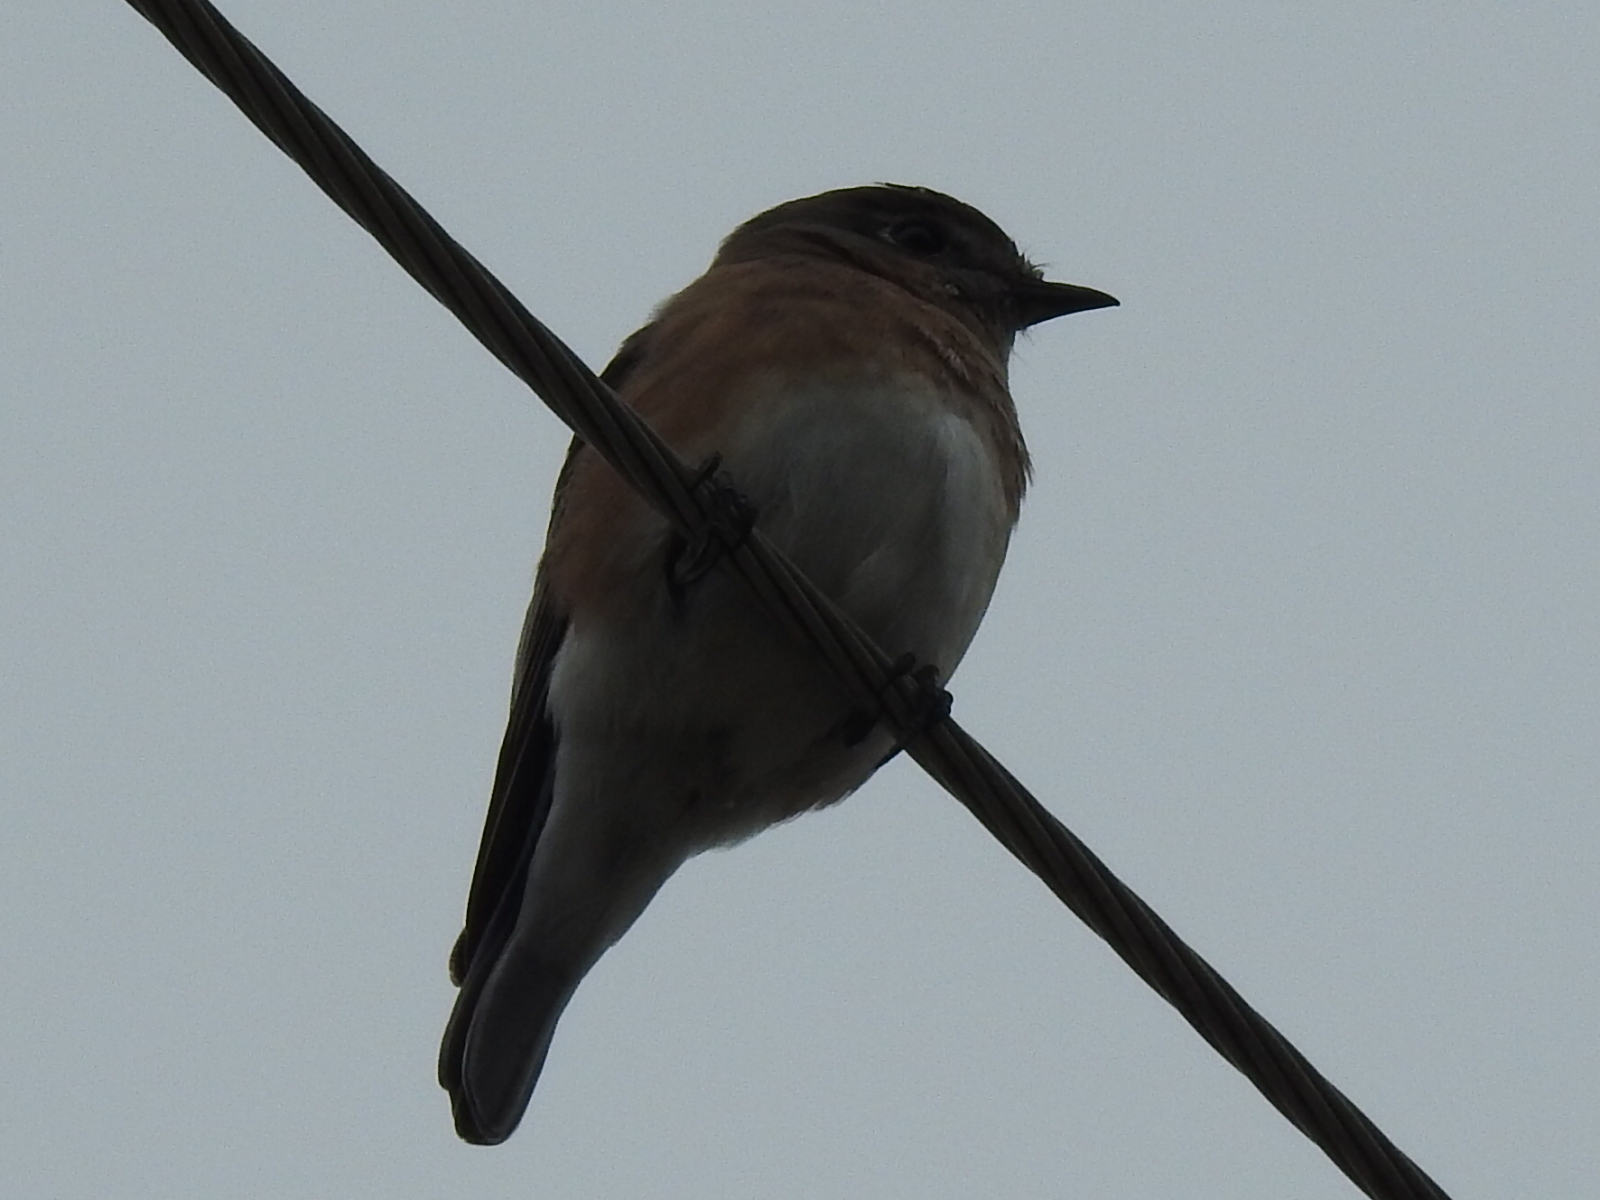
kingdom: Animalia
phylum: Chordata
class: Aves
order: Passeriformes
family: Turdidae
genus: Sialia
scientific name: Sialia sialis
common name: Eastern bluebird
